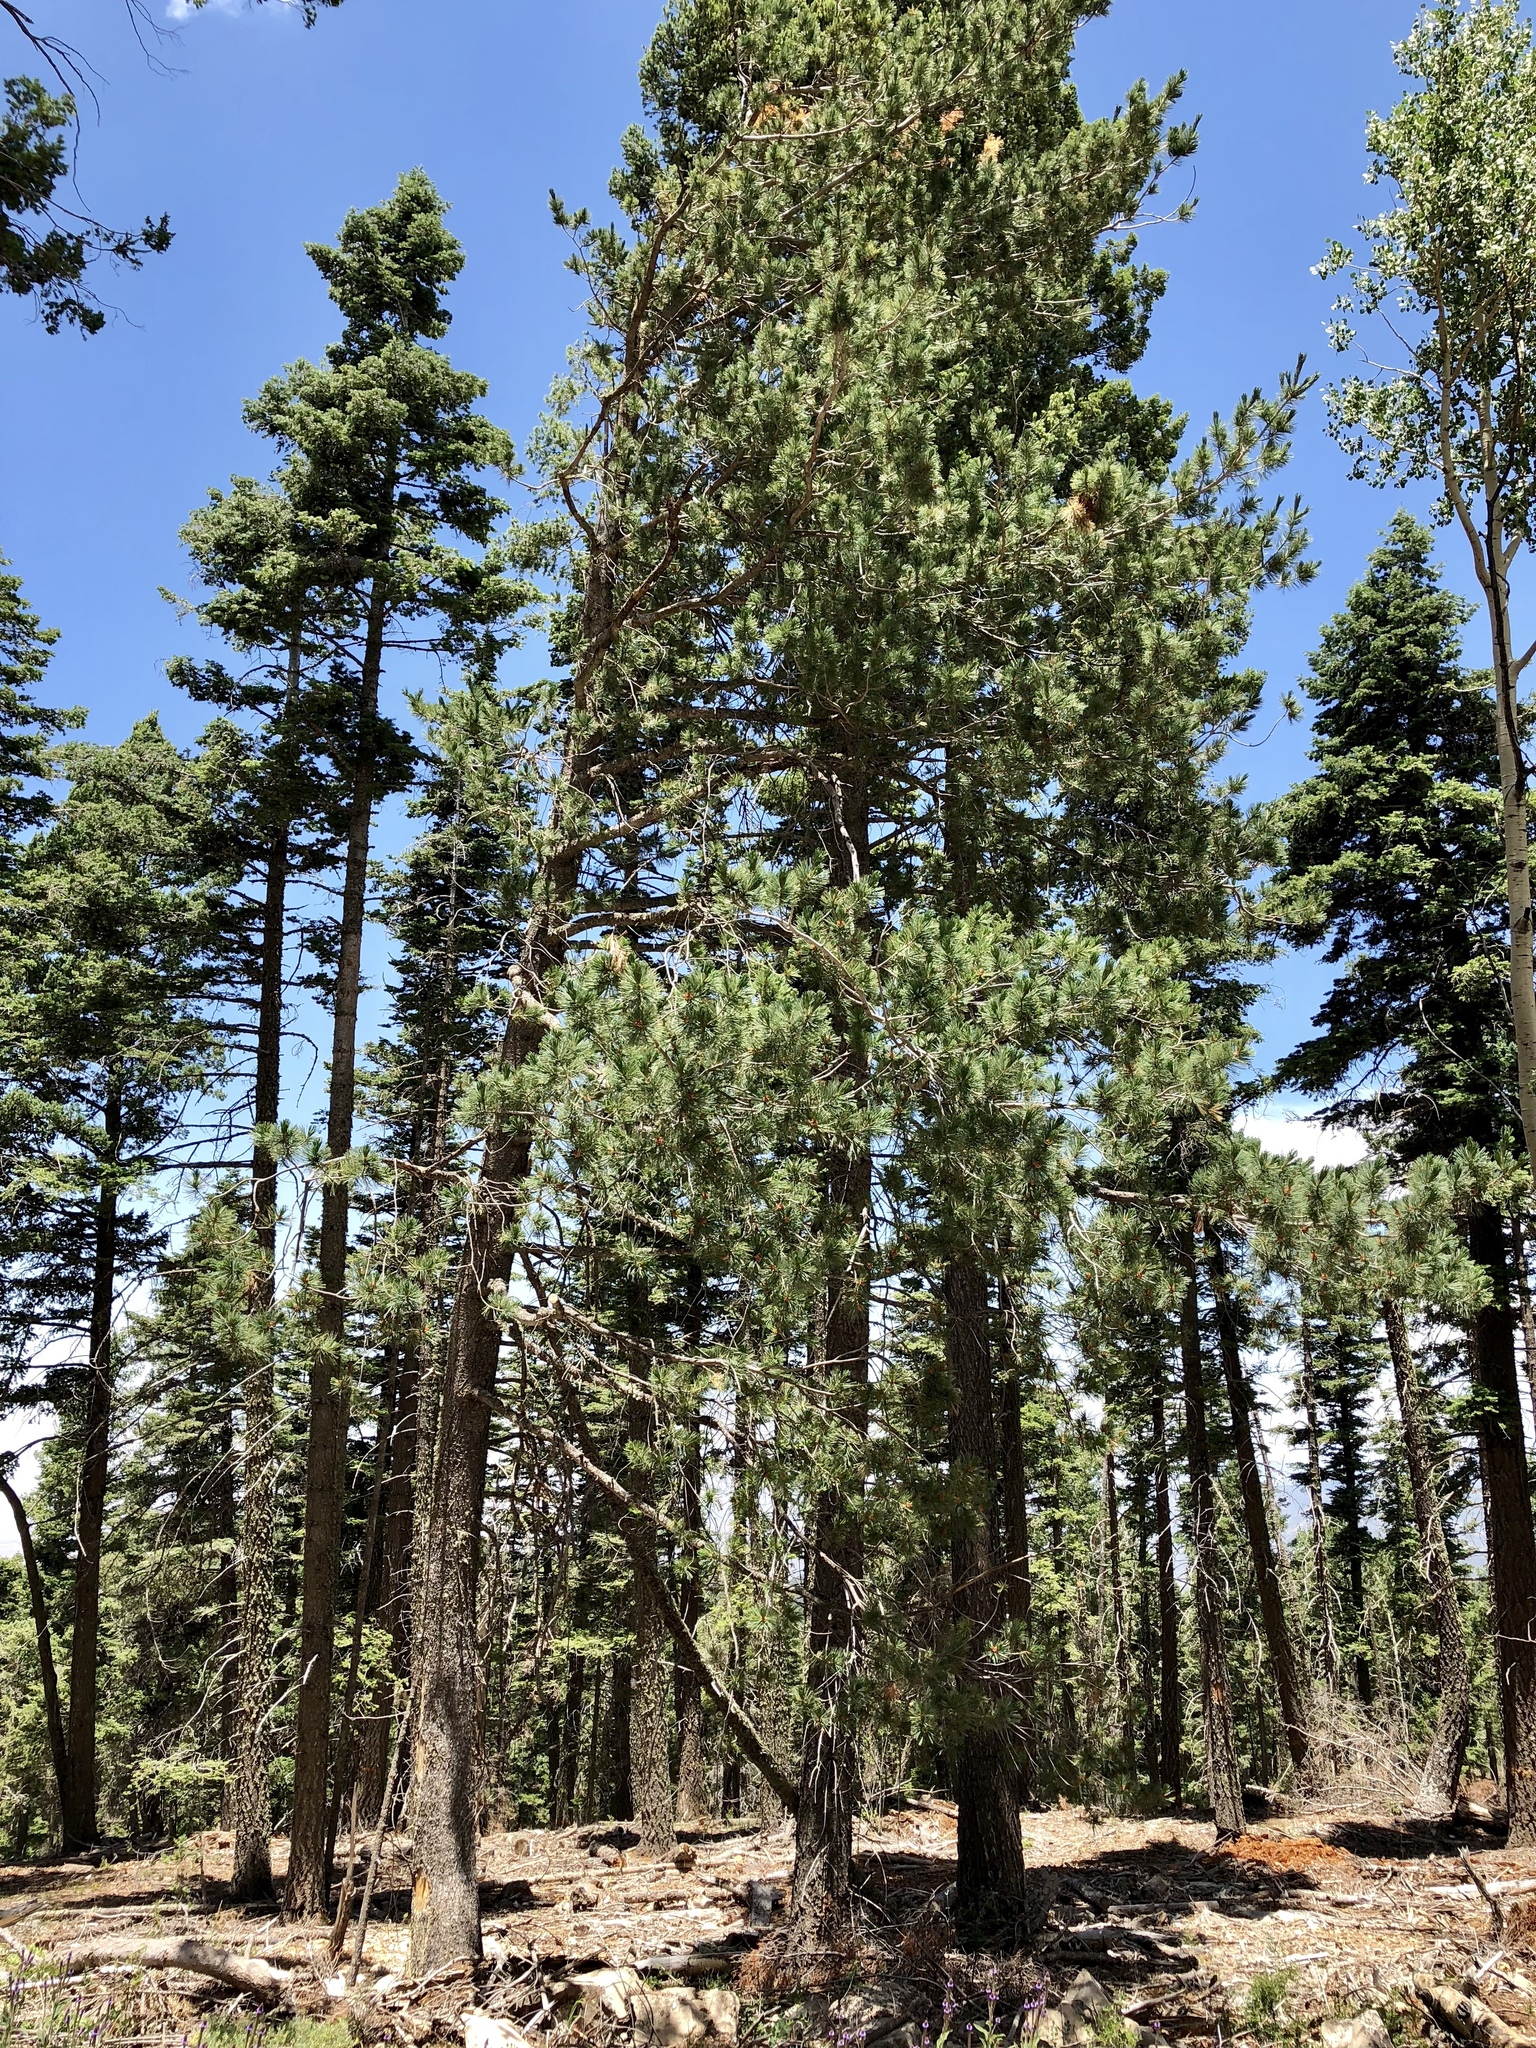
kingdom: Plantae
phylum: Tracheophyta
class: Pinopsida
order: Pinales
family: Pinaceae
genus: Pinus
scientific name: Pinus strobiformis
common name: Southwestern white pine
